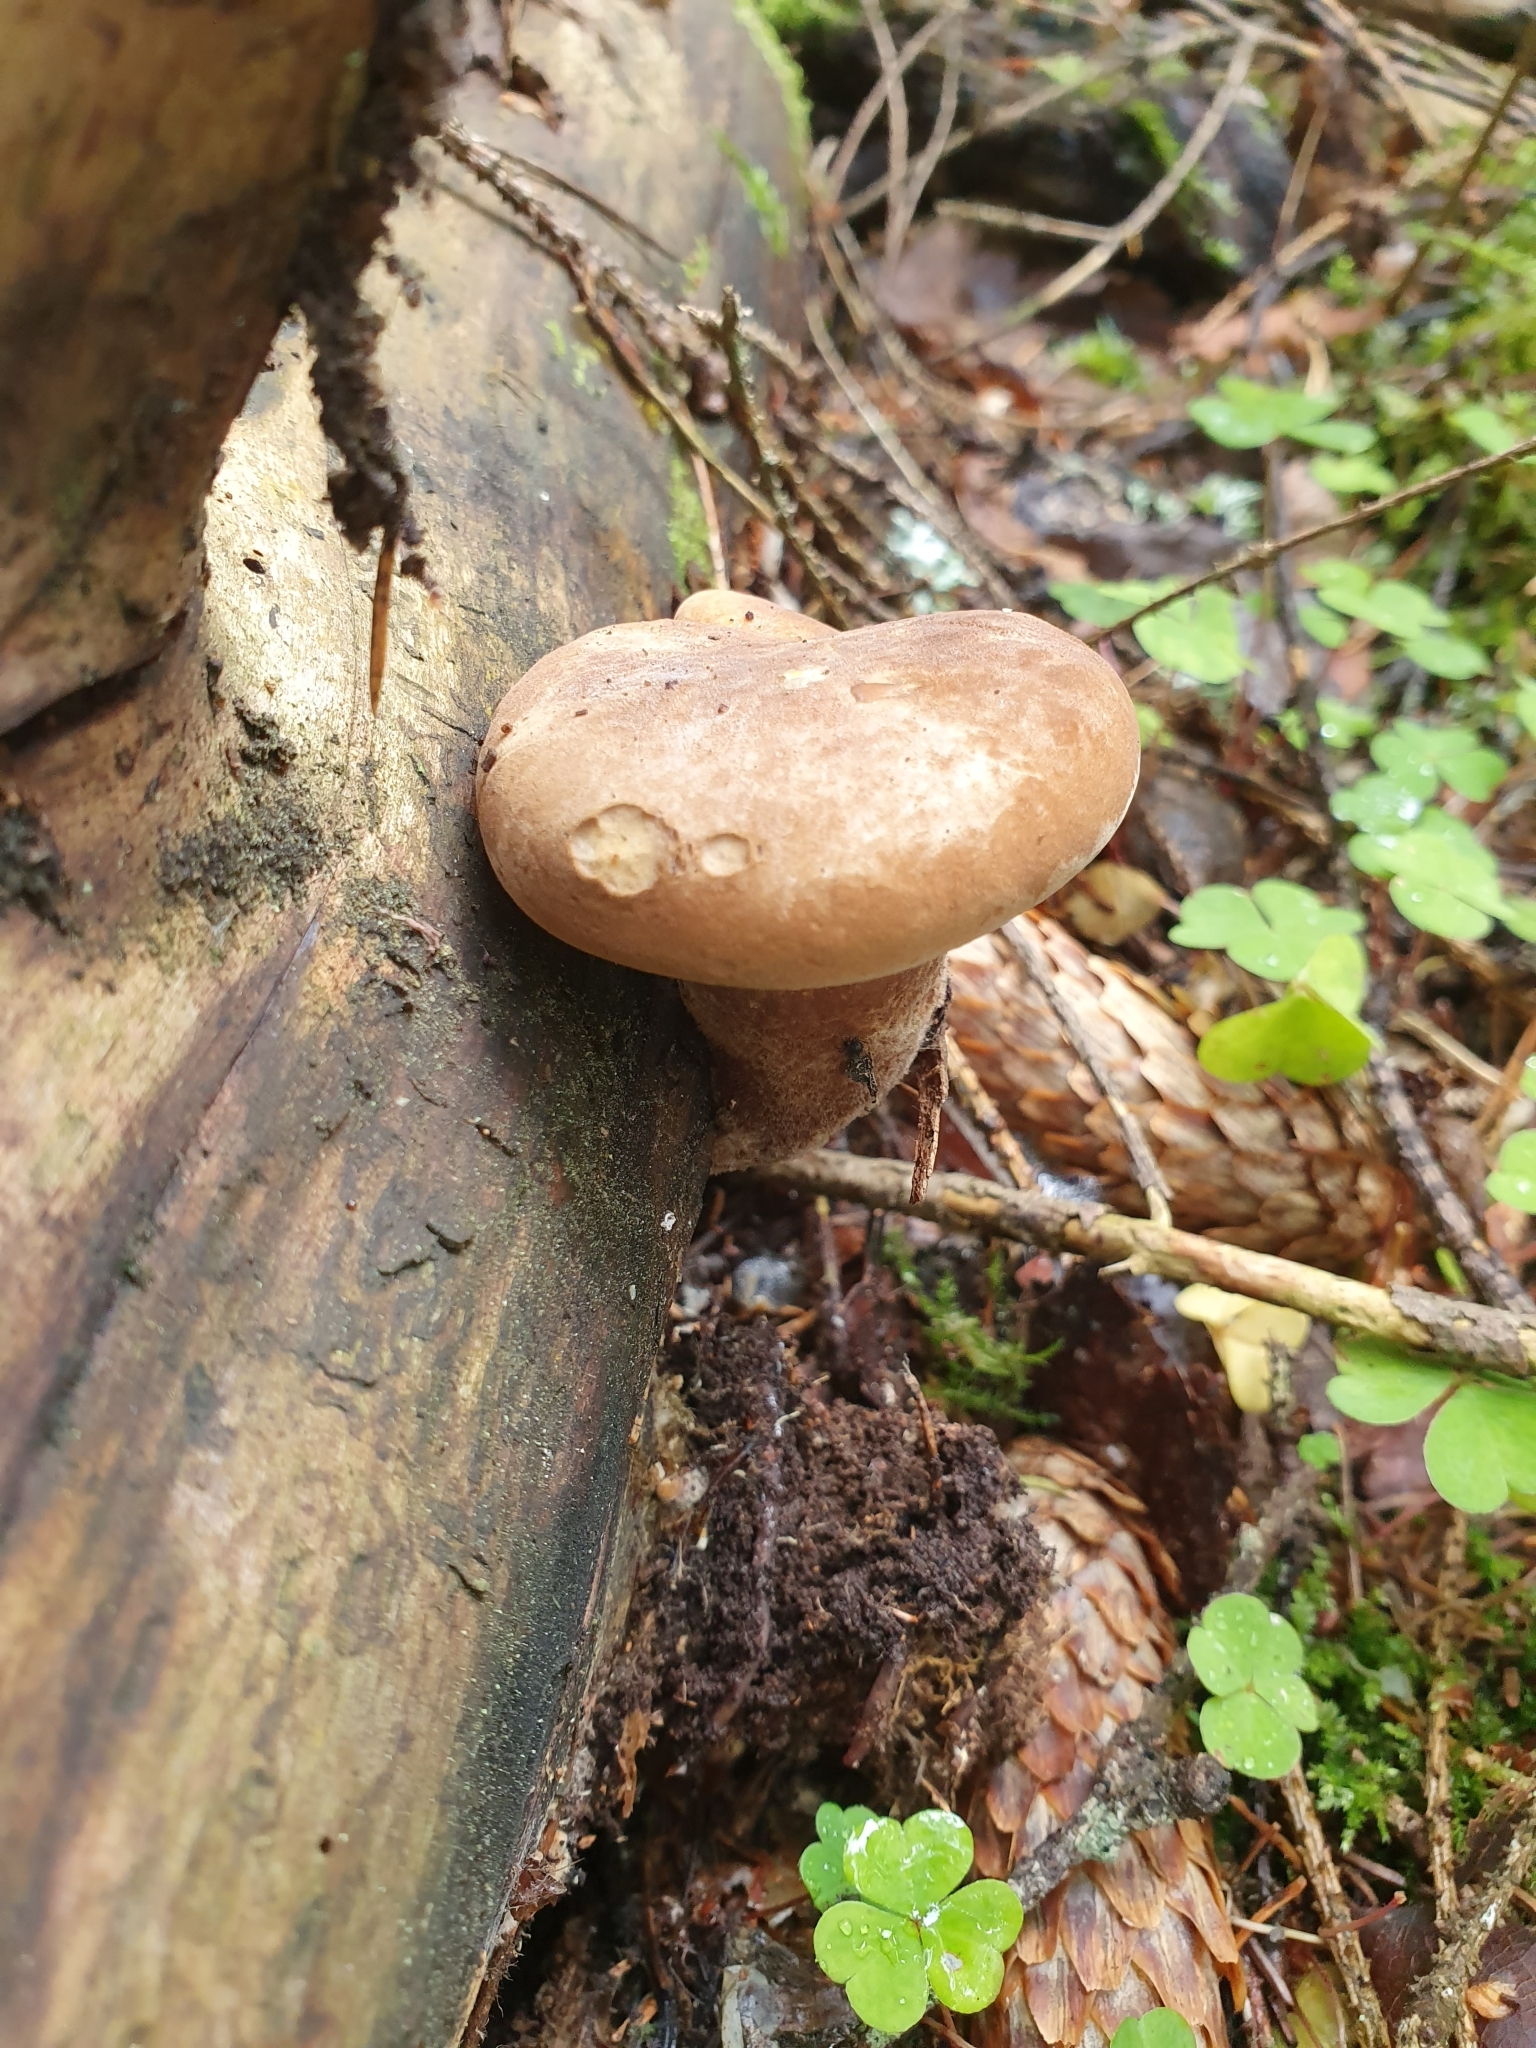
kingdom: Fungi
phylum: Basidiomycota
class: Agaricomycetes
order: Boletales
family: Tapinellaceae
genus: Tapinella
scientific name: Tapinella atrotomentosa
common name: Velvet rollrim
